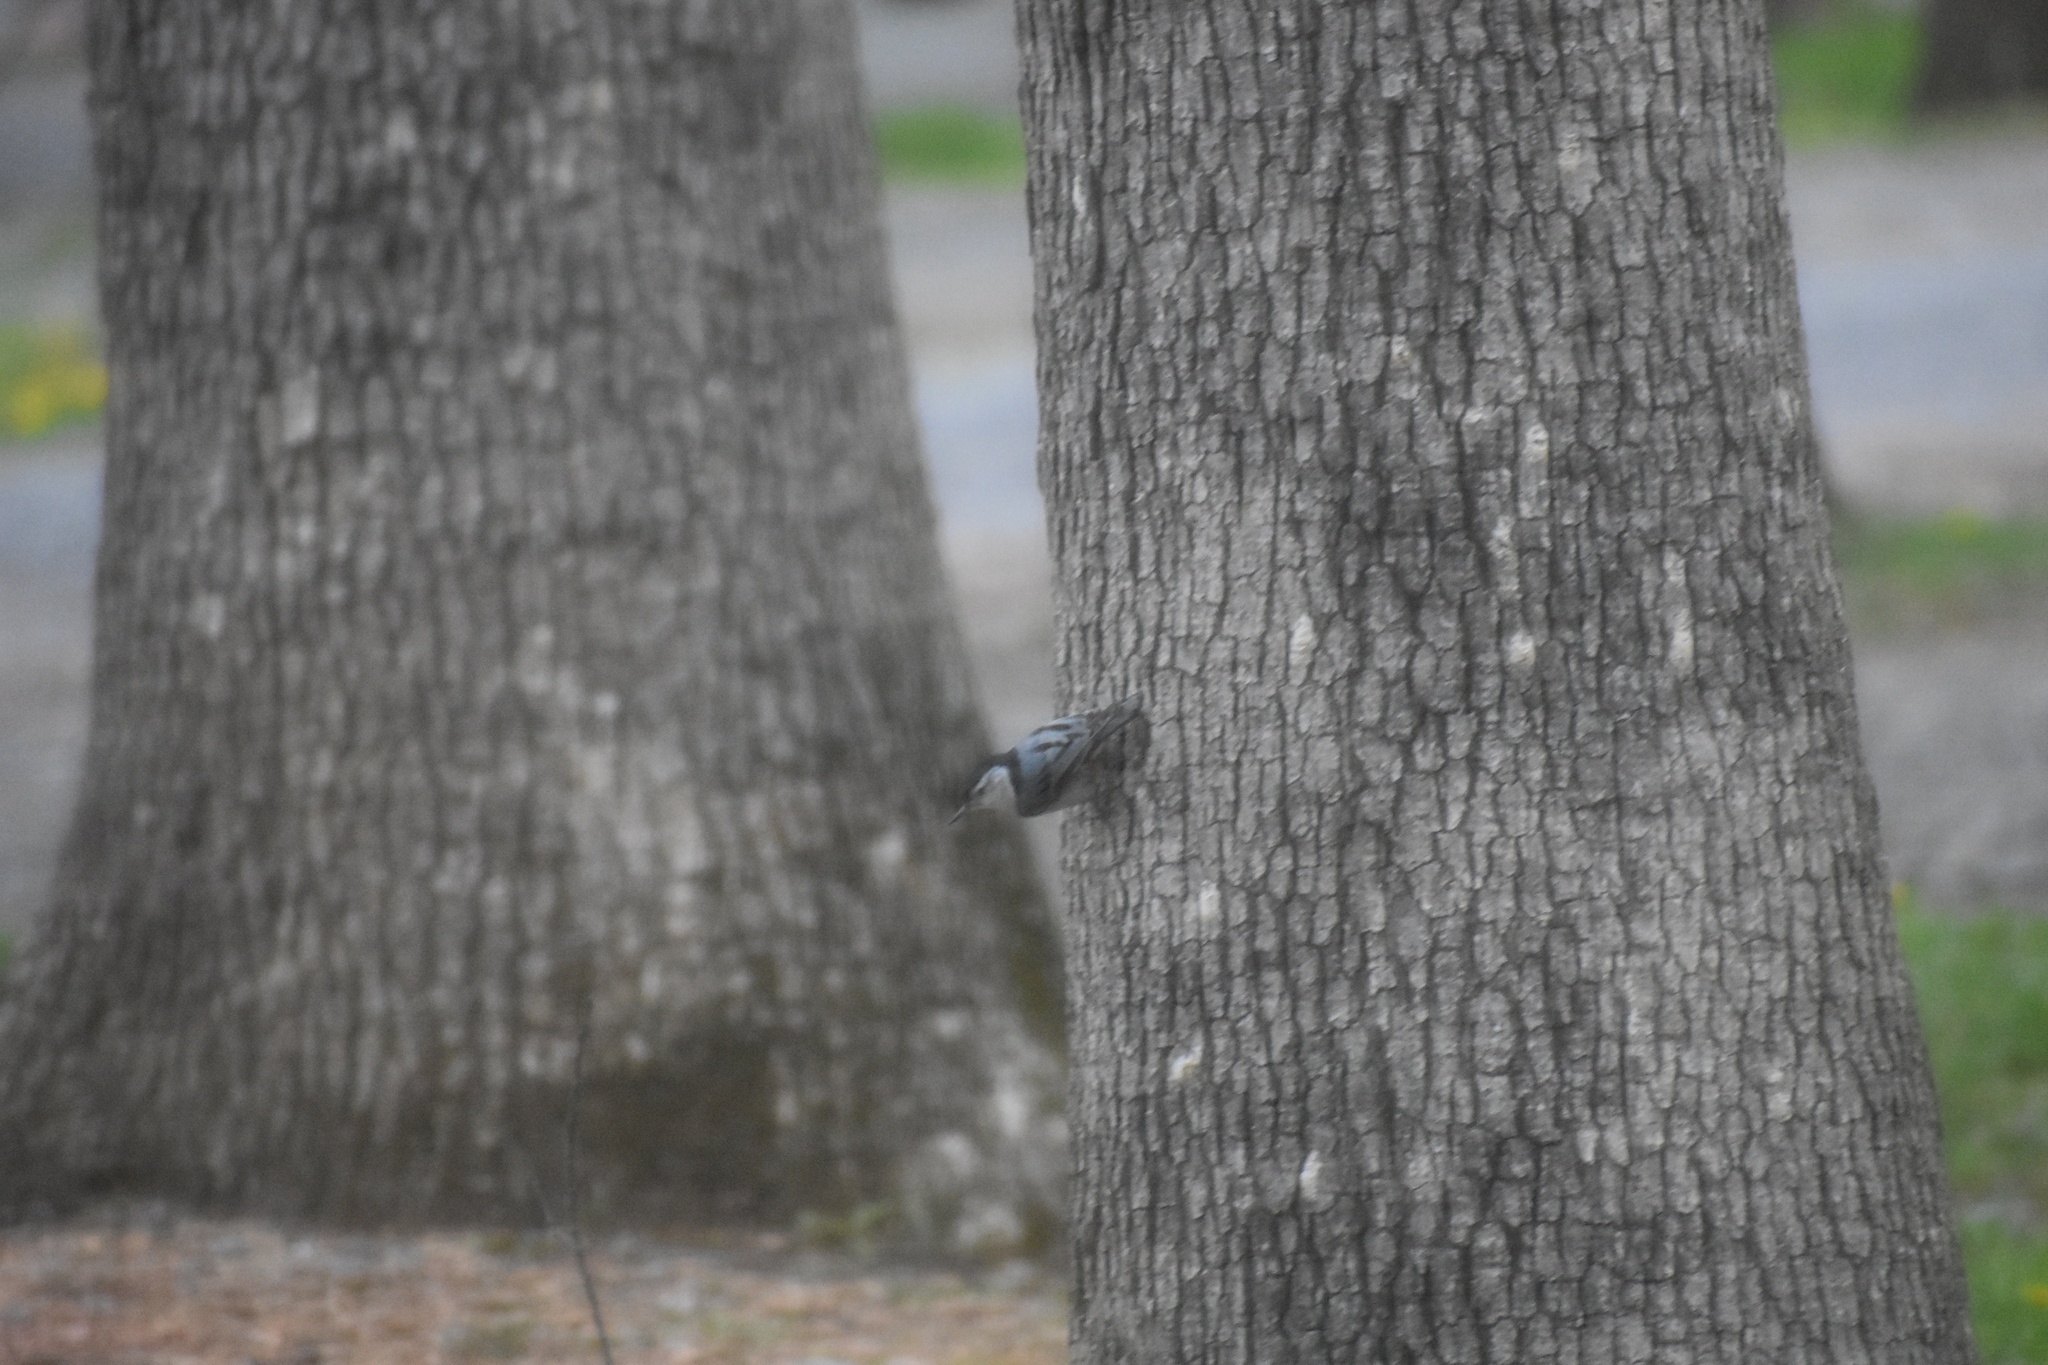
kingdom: Animalia
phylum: Chordata
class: Aves
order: Passeriformes
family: Sittidae
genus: Sitta
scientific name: Sitta carolinensis
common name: White-breasted nuthatch
